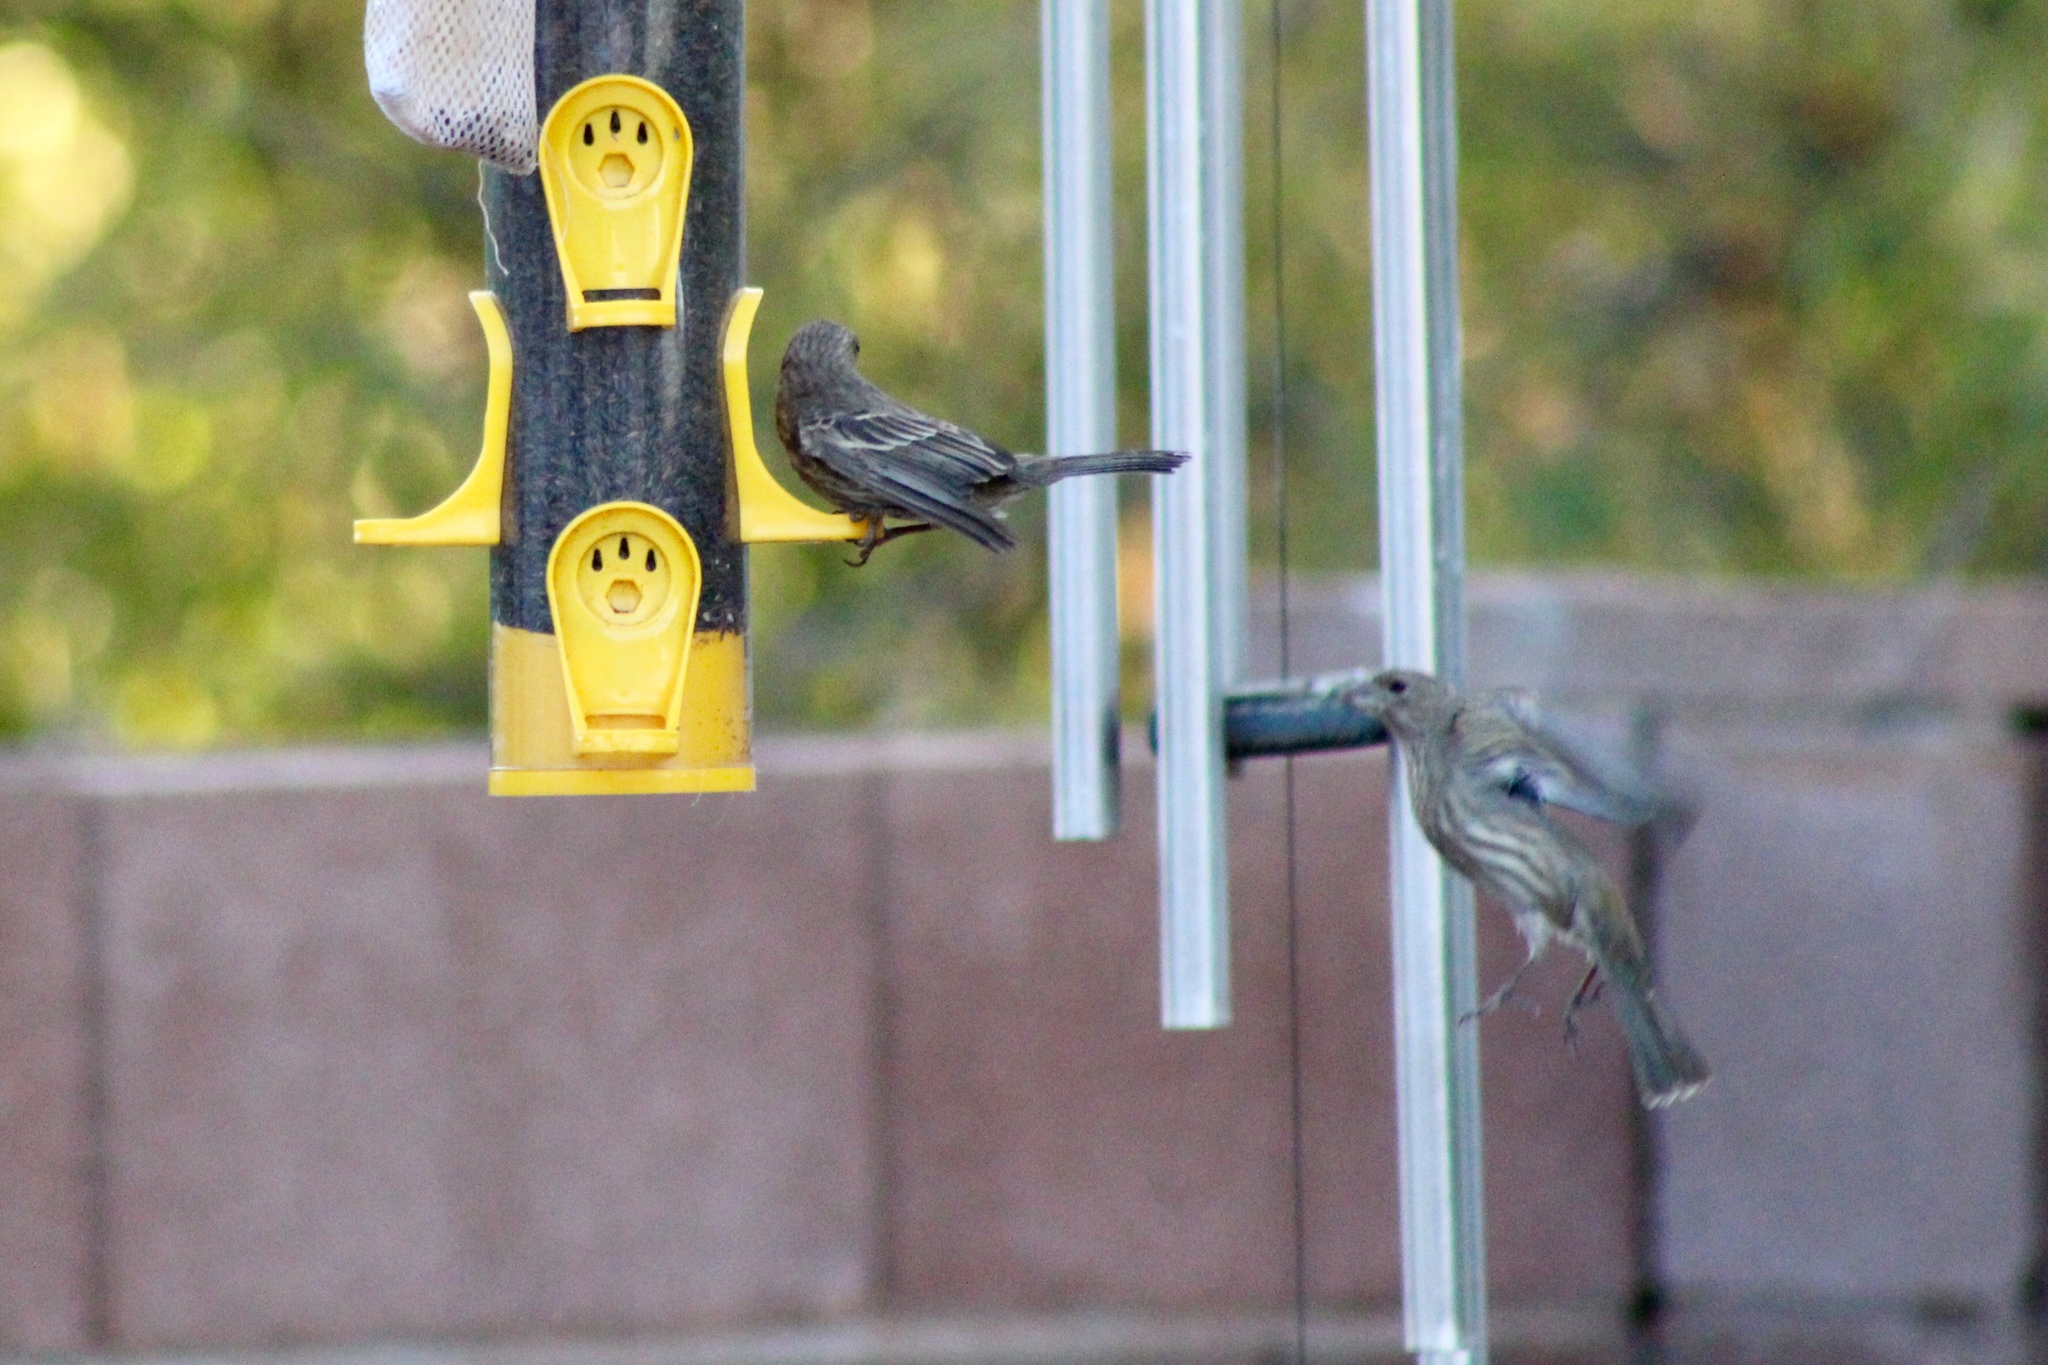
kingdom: Animalia
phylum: Chordata
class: Aves
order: Passeriformes
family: Fringillidae
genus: Haemorhous
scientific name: Haemorhous mexicanus
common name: House finch
